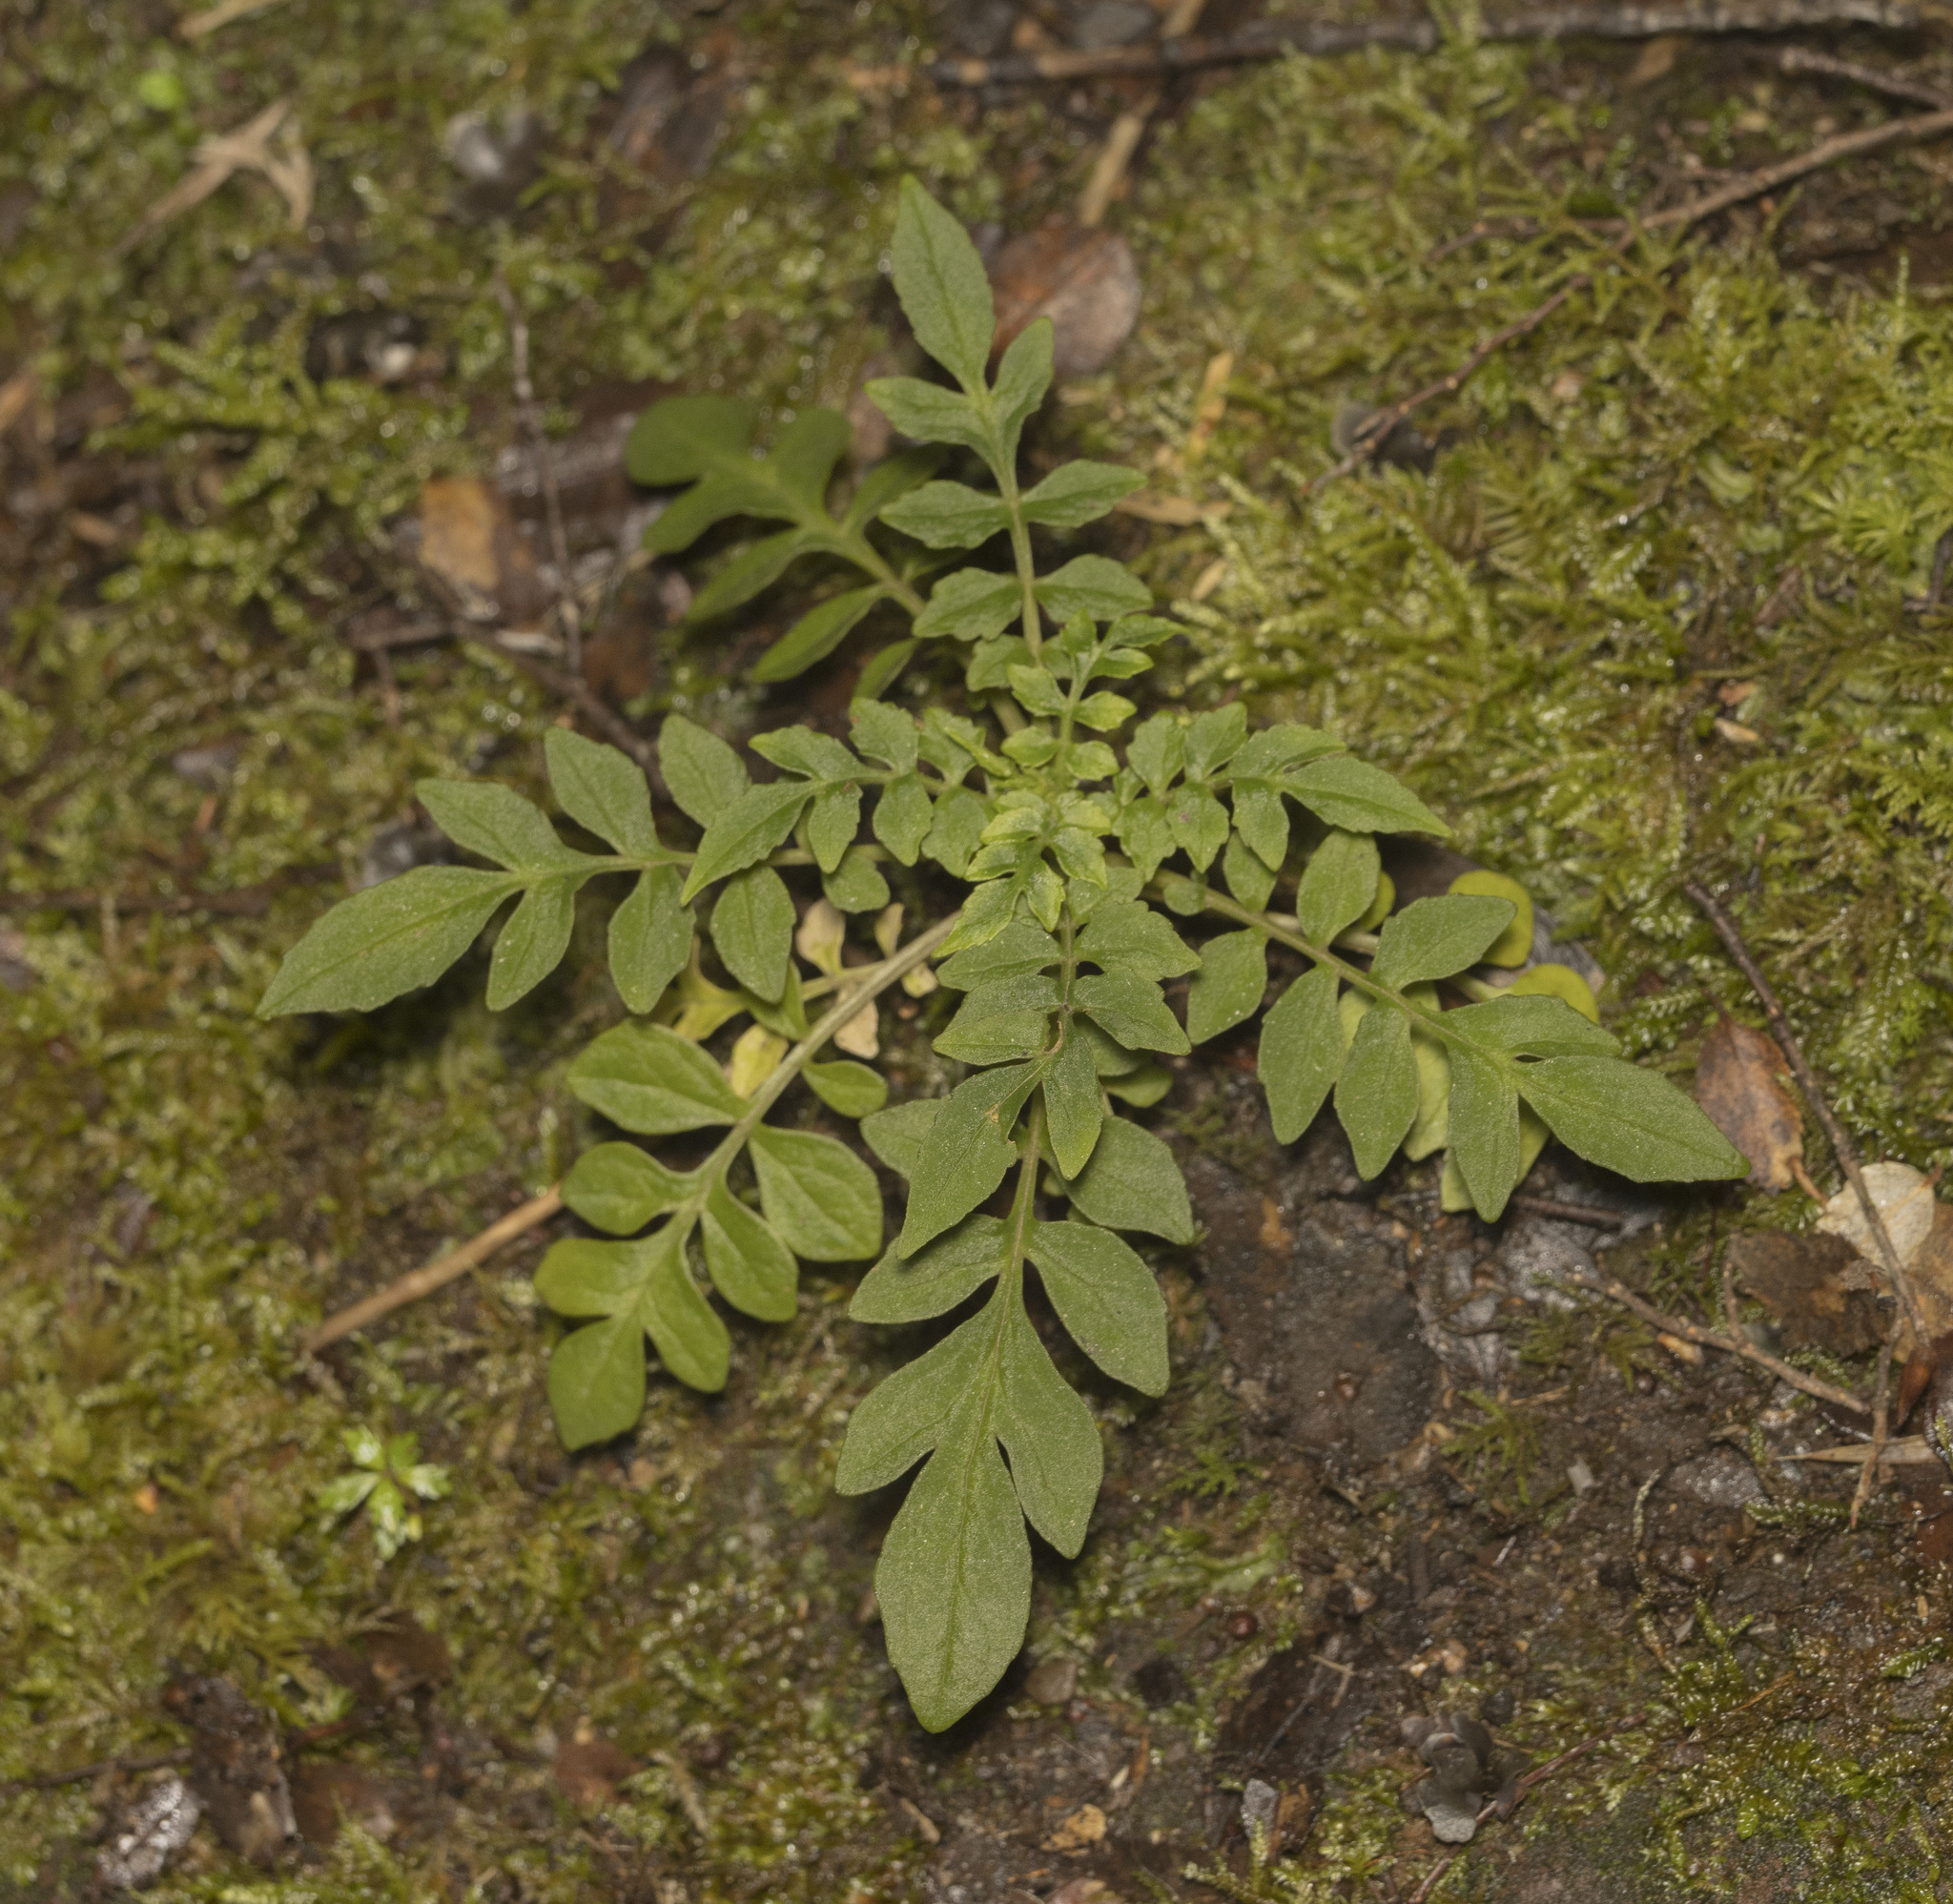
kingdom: Plantae
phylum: Tracheophyta
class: Magnoliopsida
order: Dipsacales
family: Caprifoliaceae
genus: Valeriana
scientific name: Valeriana polemoniifolia
